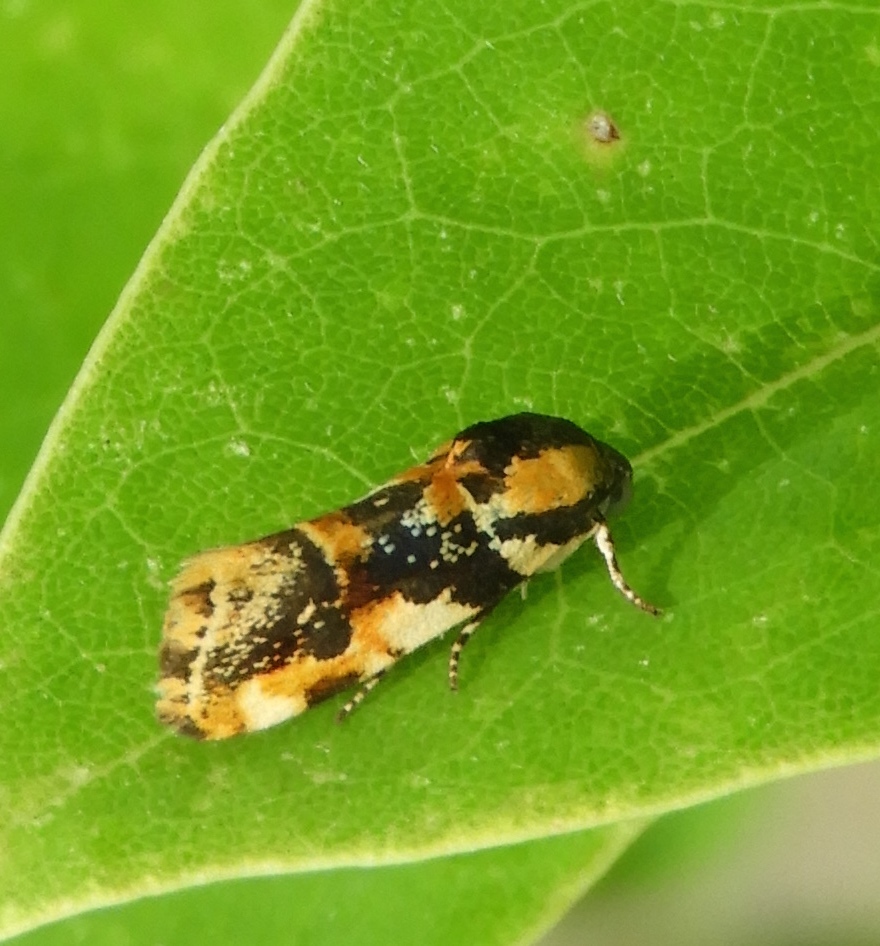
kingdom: Animalia
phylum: Arthropoda
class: Insecta
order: Lepidoptera
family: Noctuidae
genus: Spragueia
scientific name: Spragueia jaguaralis
